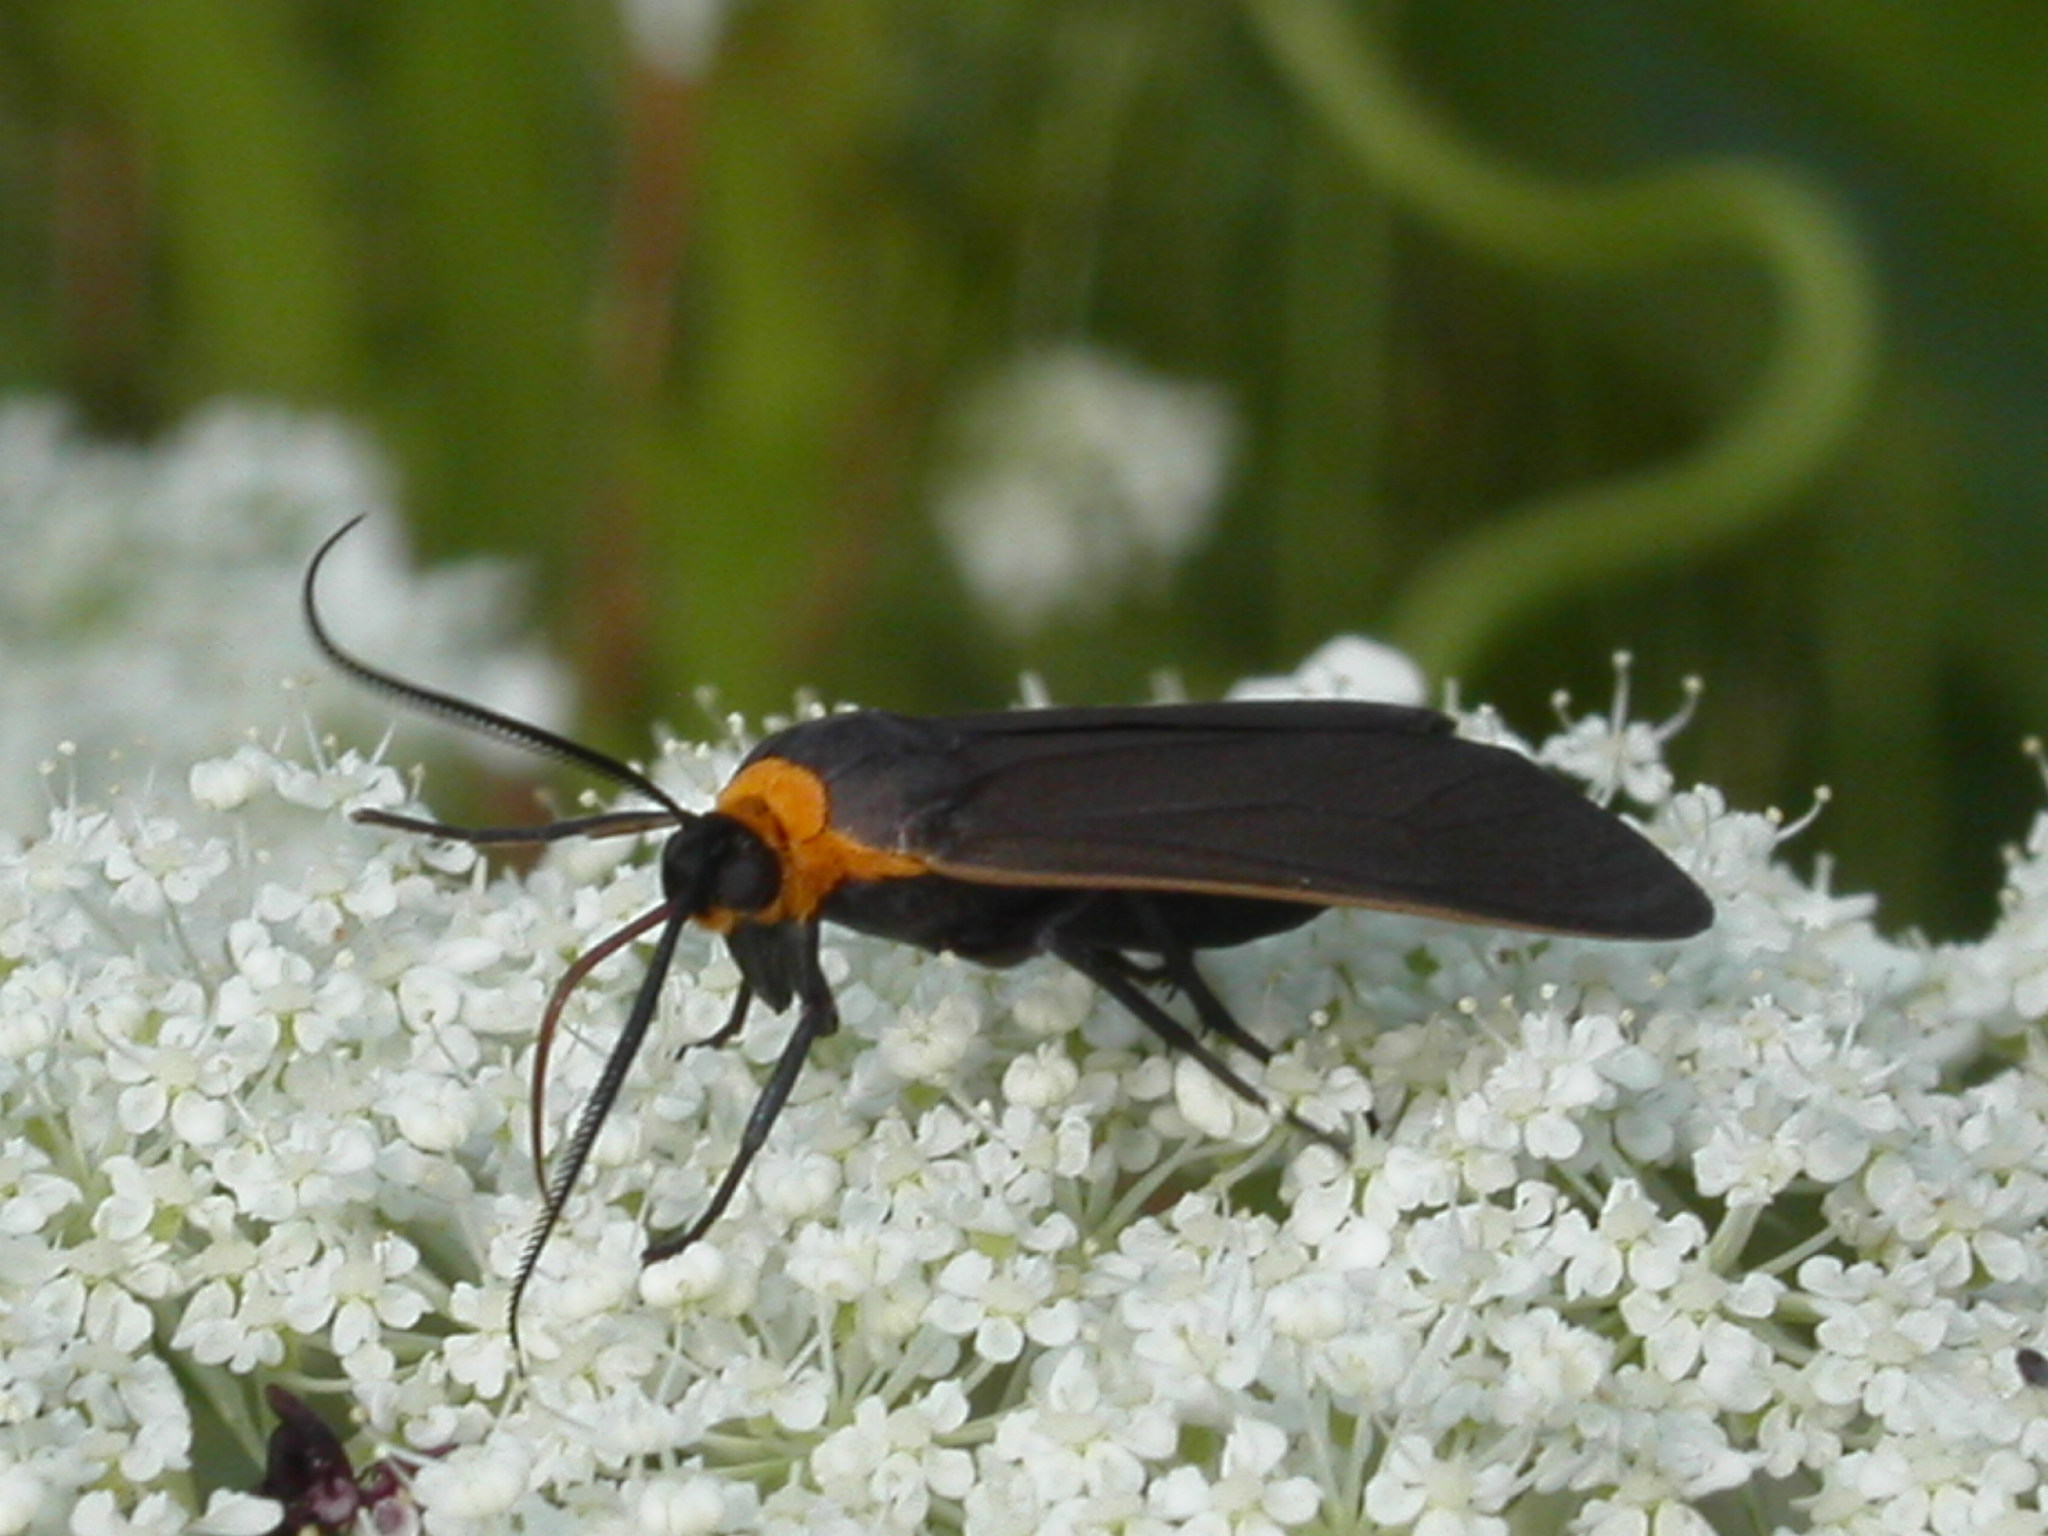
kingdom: Animalia
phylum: Arthropoda
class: Insecta
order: Lepidoptera
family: Erebidae
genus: Cisseps
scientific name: Cisseps fulvicollis
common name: Yellow-collared scape moth
